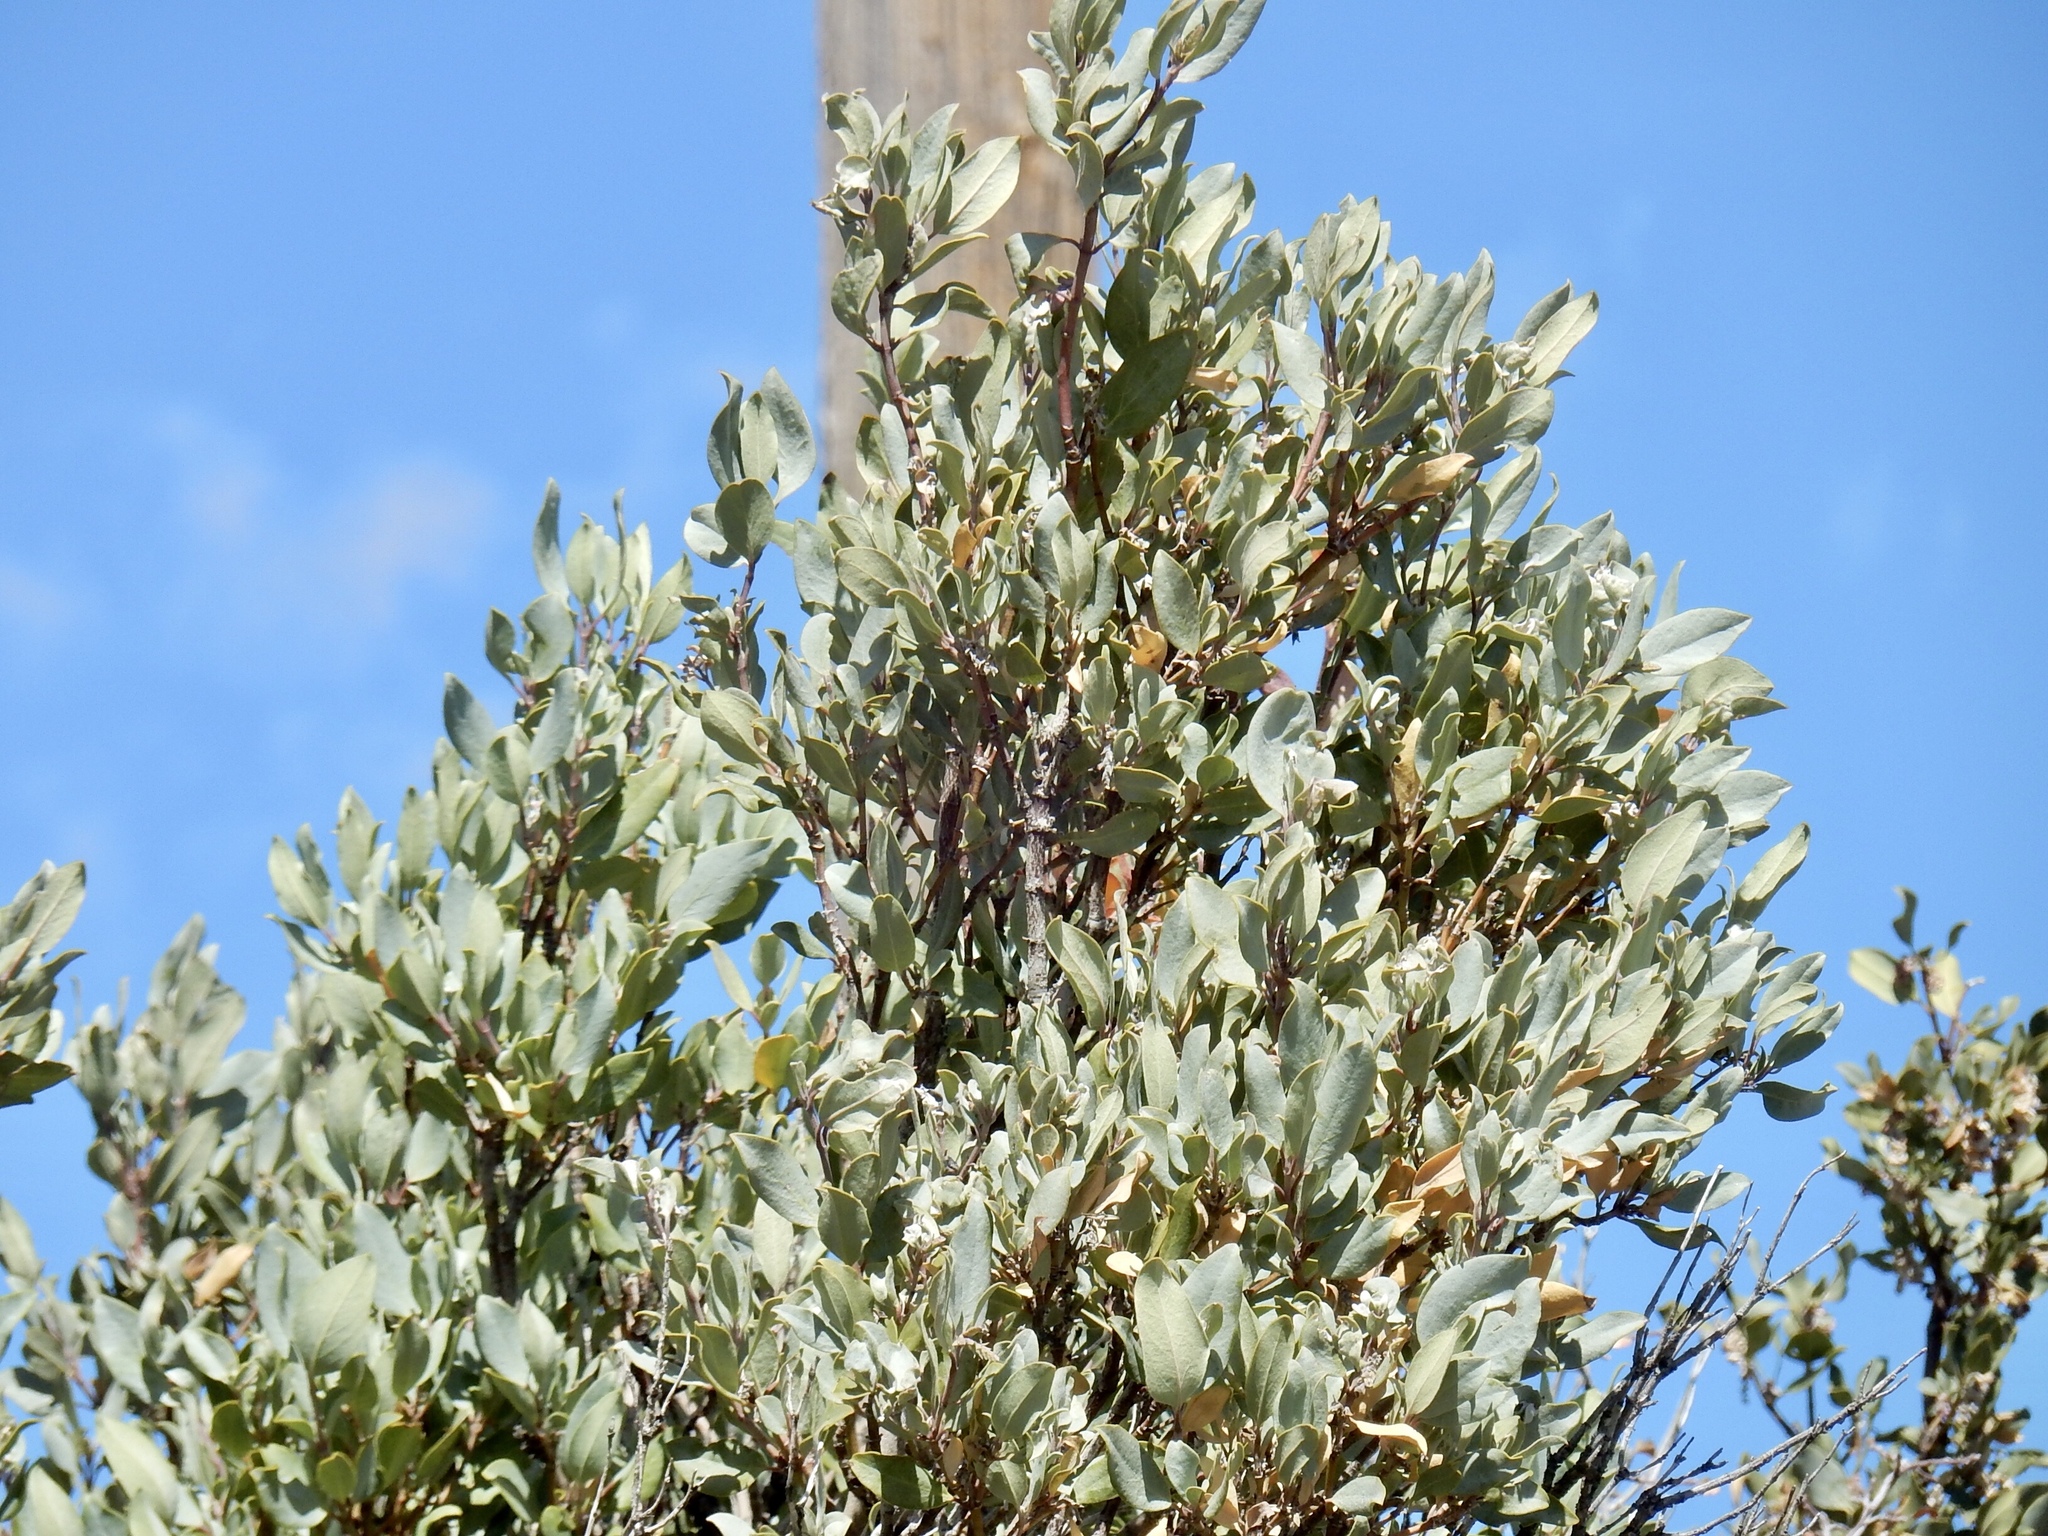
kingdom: Plantae
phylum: Tracheophyta
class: Magnoliopsida
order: Garryales
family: Garryaceae
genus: Garrya
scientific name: Garrya flavescens
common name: Ashy silk-tassel
